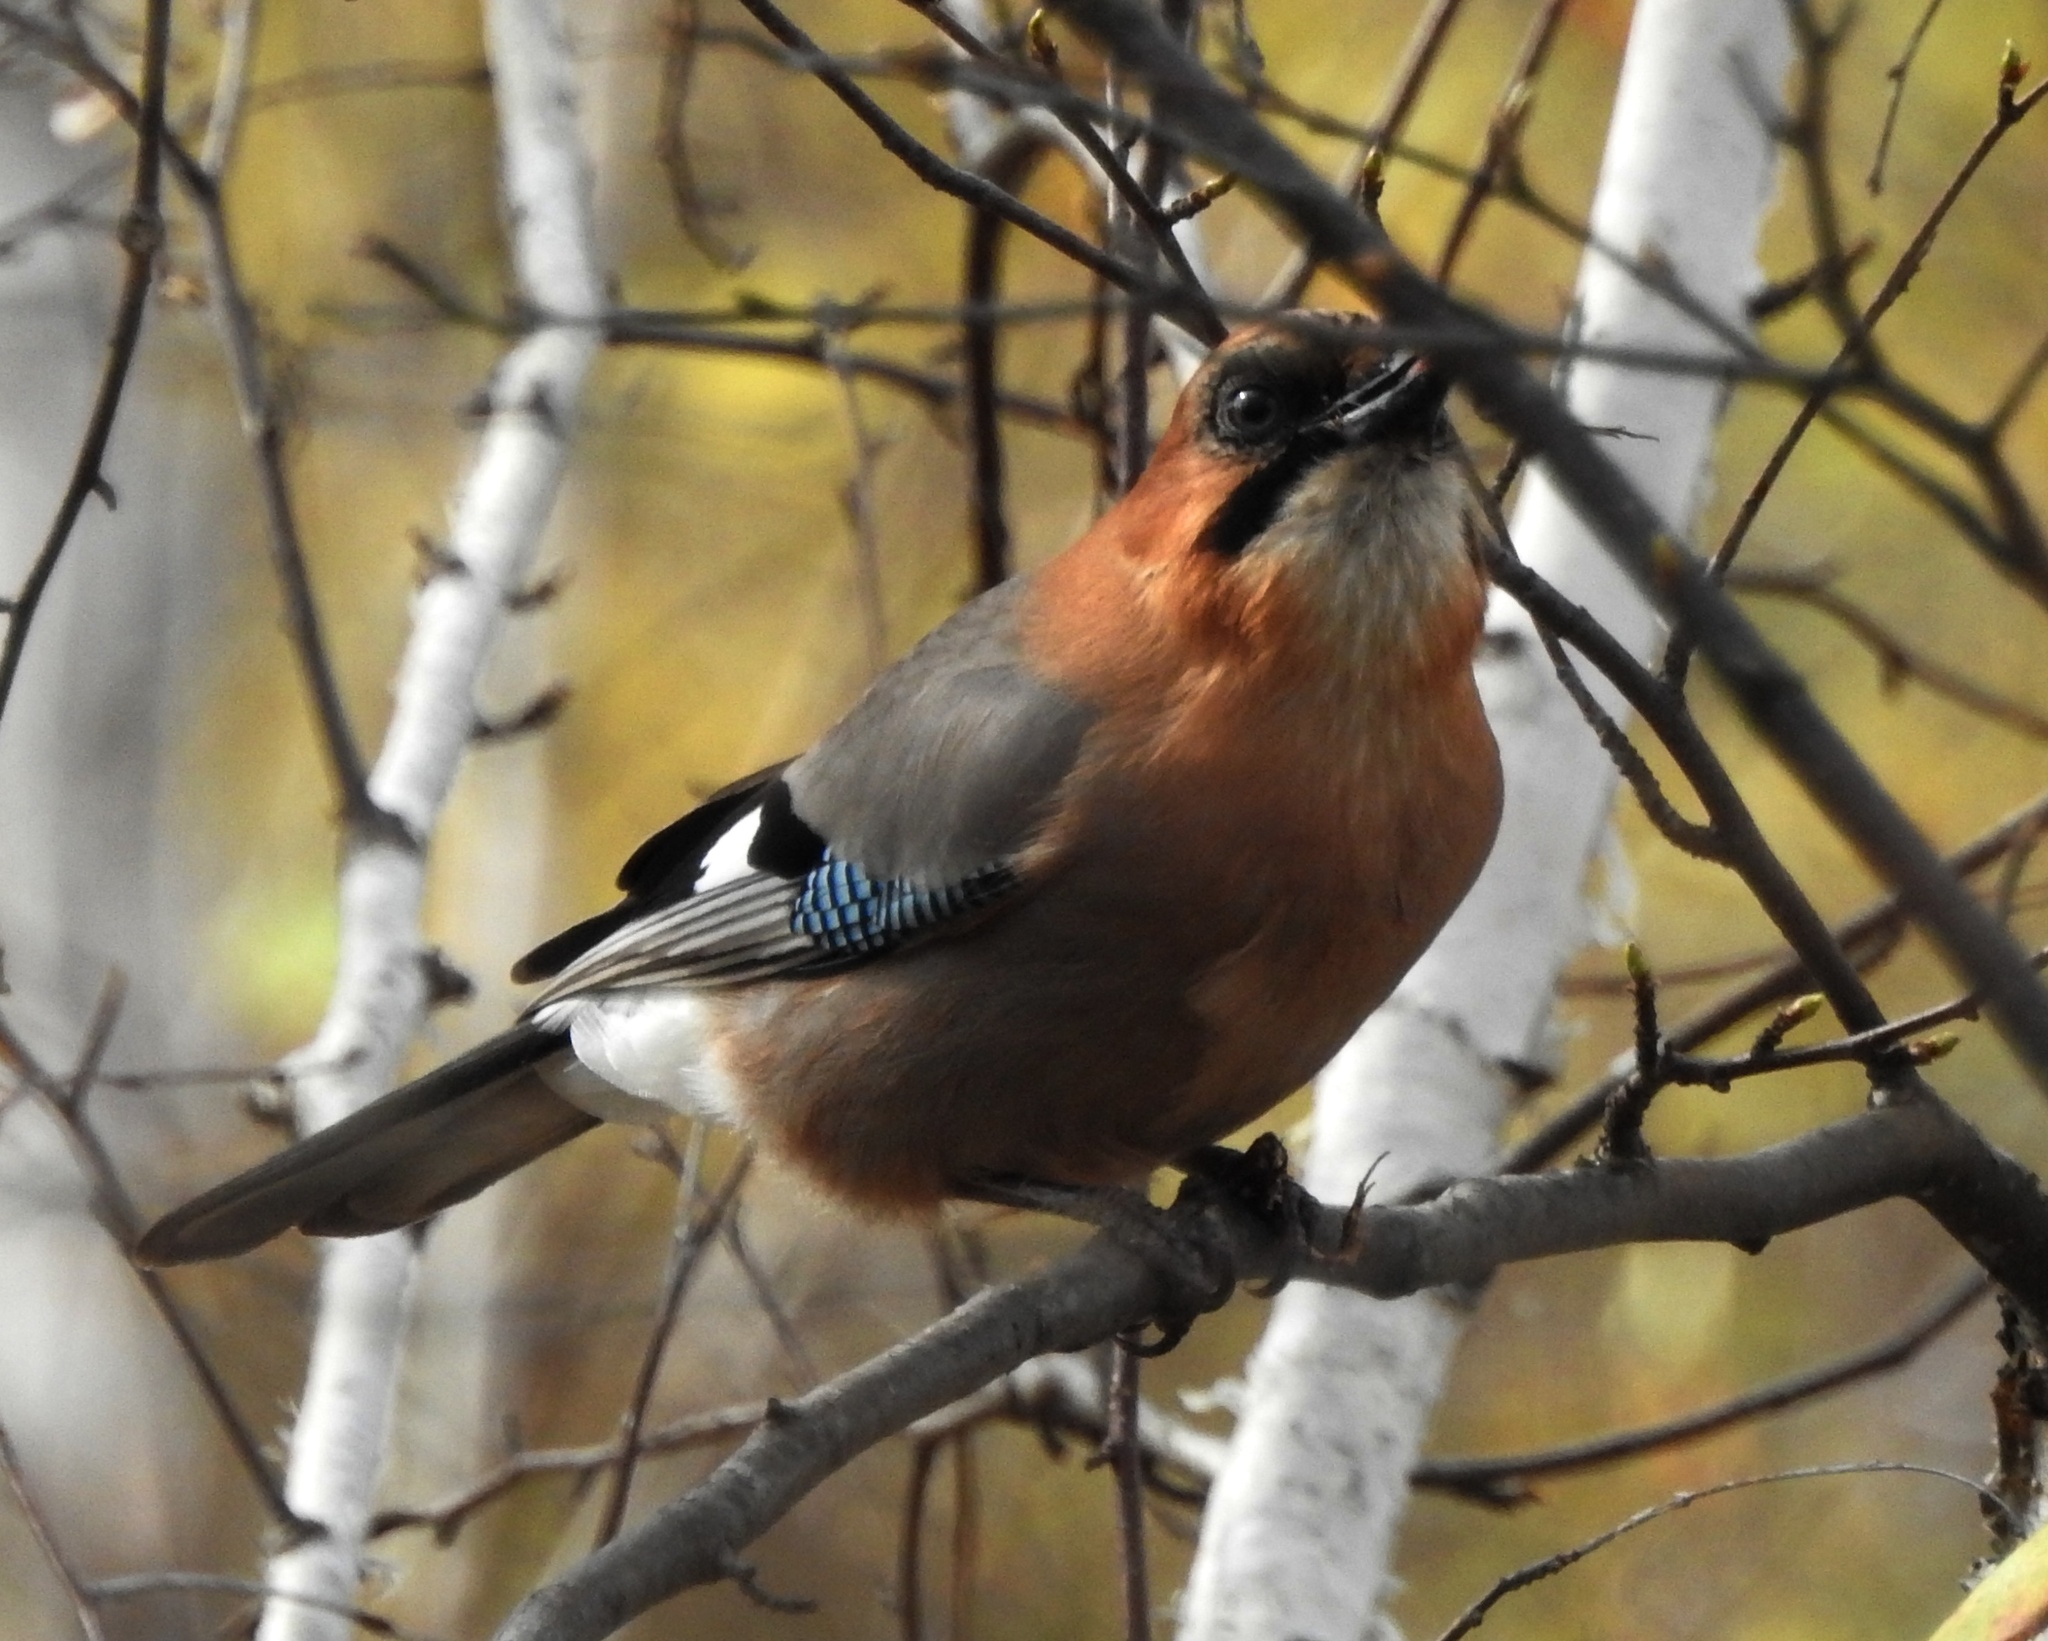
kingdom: Animalia
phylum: Chordata
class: Aves
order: Passeriformes
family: Corvidae
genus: Garrulus
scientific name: Garrulus glandarius
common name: Eurasian jay
